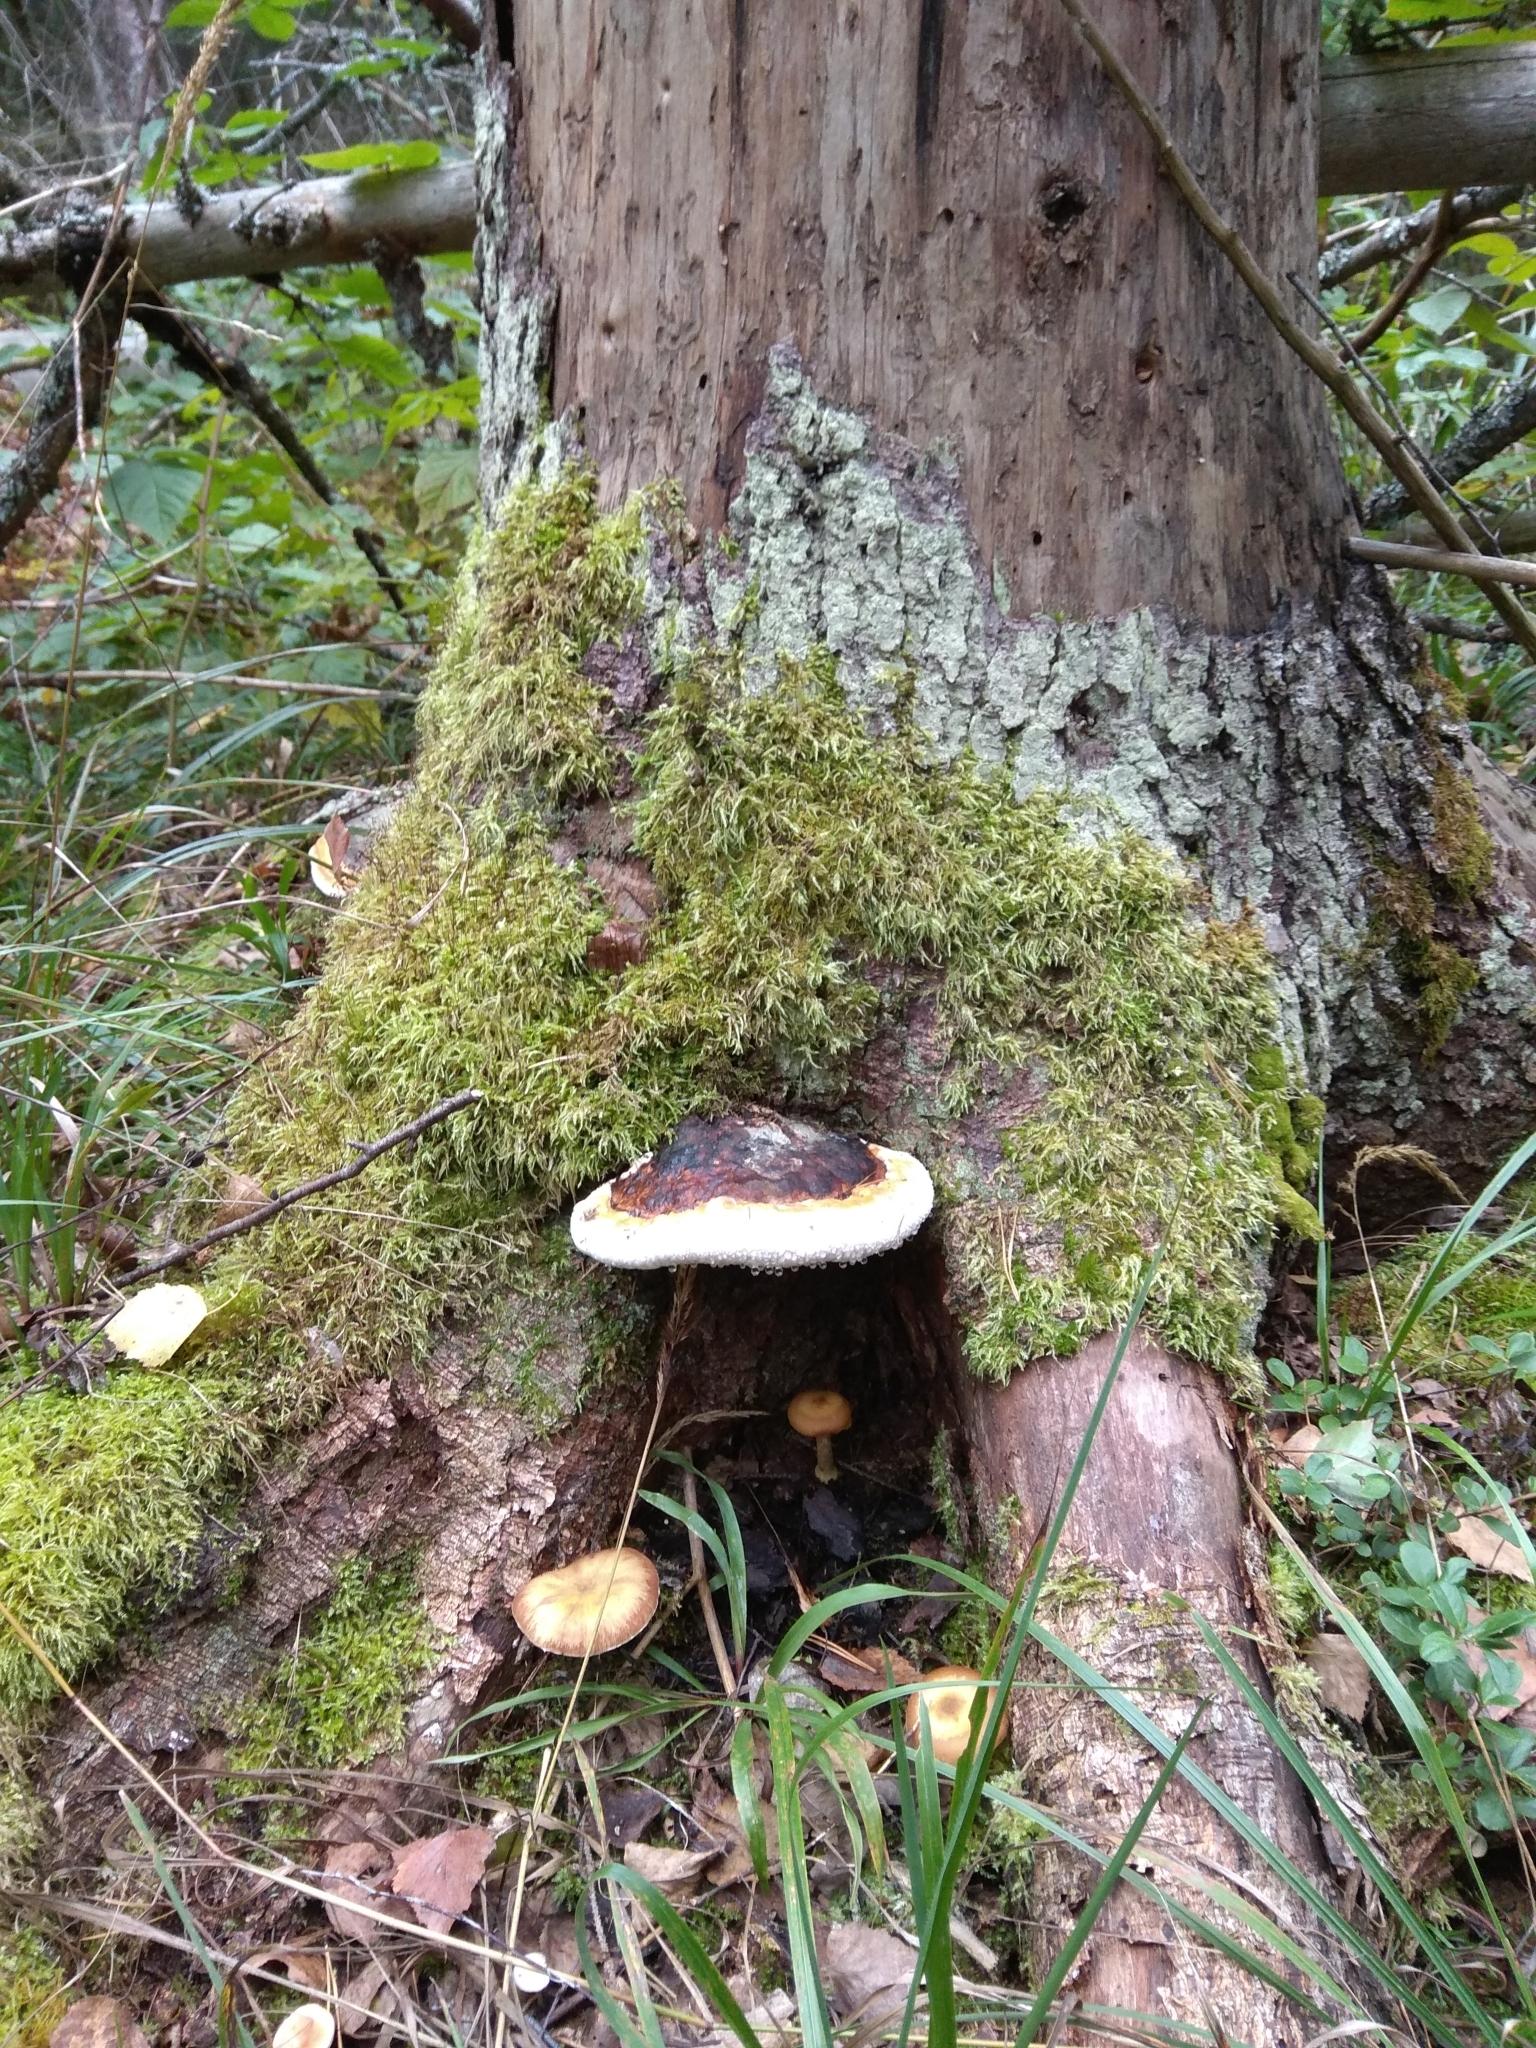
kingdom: Fungi
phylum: Basidiomycota
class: Agaricomycetes
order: Polyporales
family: Fomitopsidaceae
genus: Fomitopsis
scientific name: Fomitopsis pinicola
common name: Red-belted bracket
